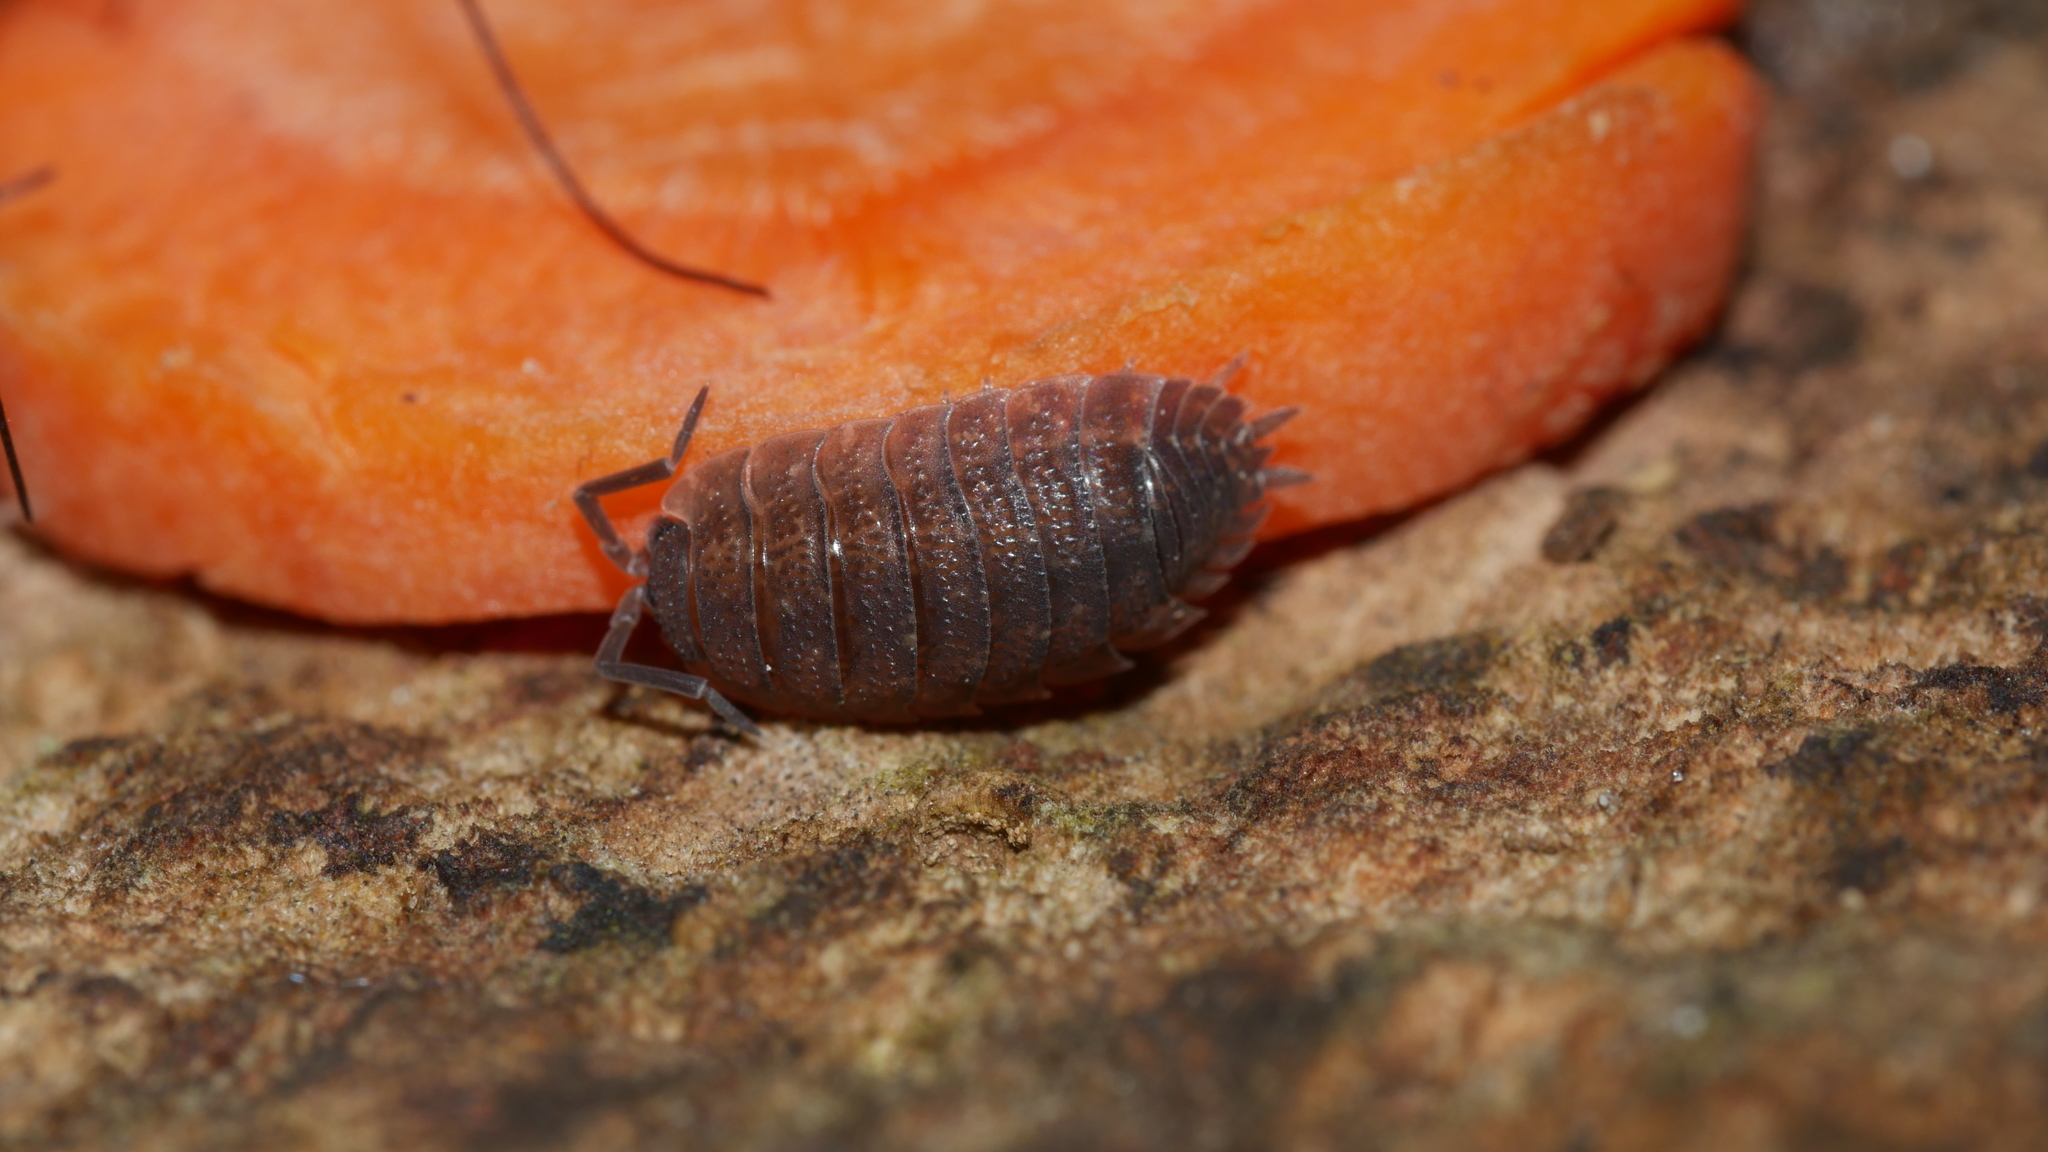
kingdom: Animalia
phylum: Arthropoda
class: Malacostraca
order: Isopoda
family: Porcellionidae
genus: Porcellio
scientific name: Porcellio scaber
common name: Common rough woodlouse
